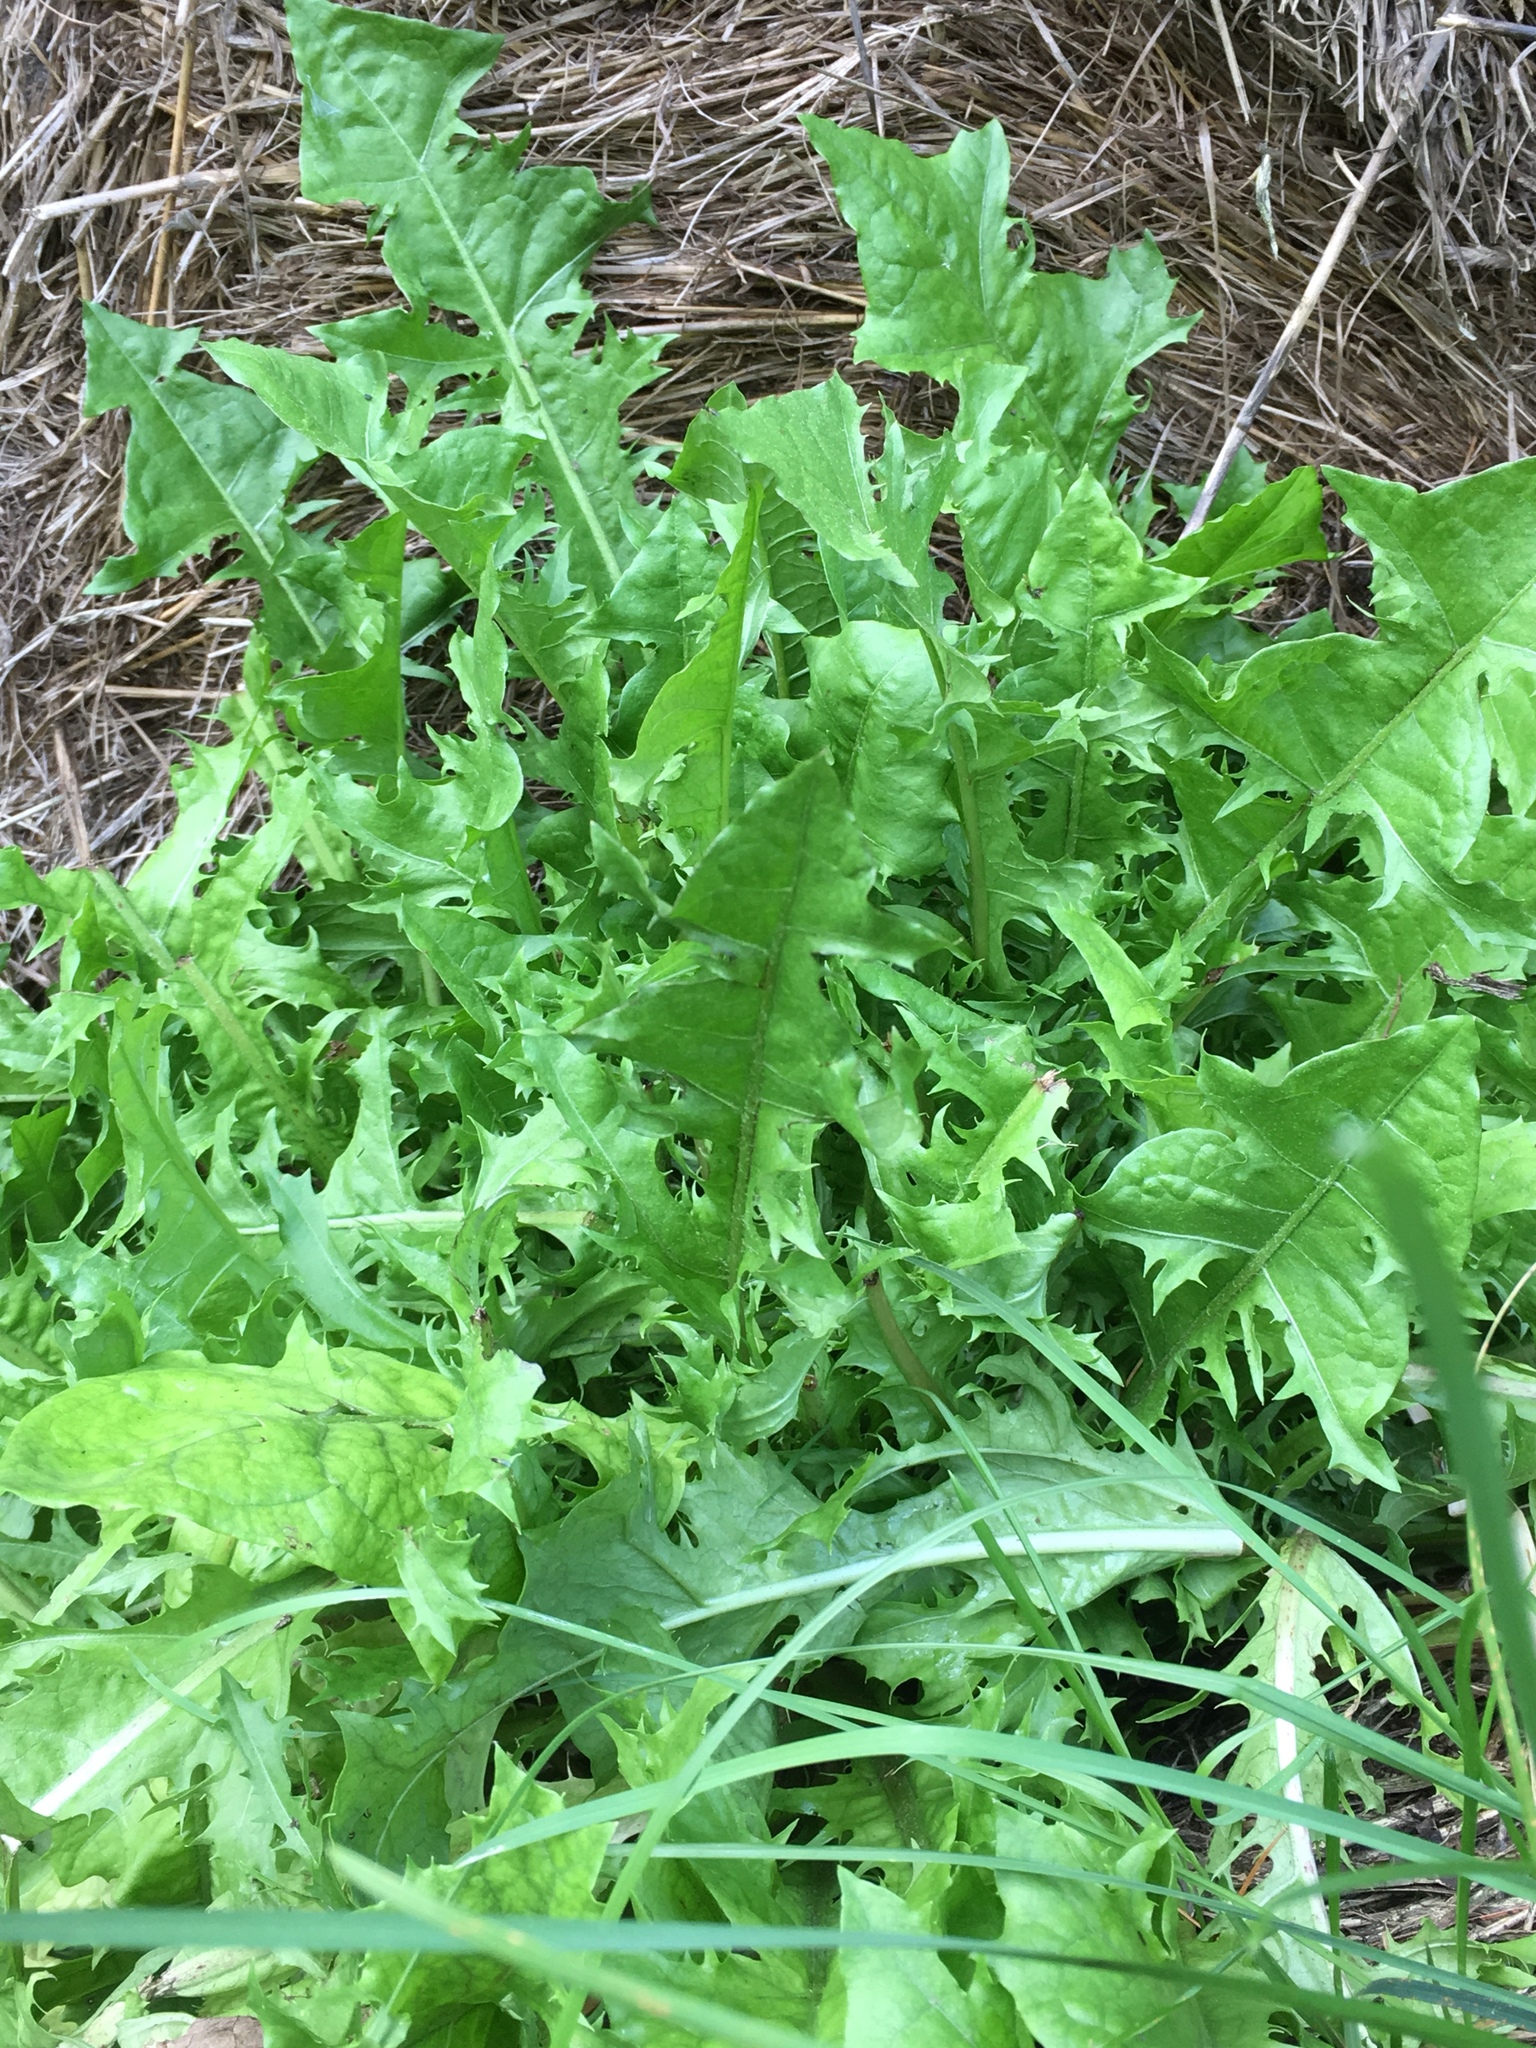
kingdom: Plantae
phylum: Tracheophyta
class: Magnoliopsida
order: Asterales
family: Asteraceae
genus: Taraxacum
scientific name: Taraxacum officinale
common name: Common dandelion
